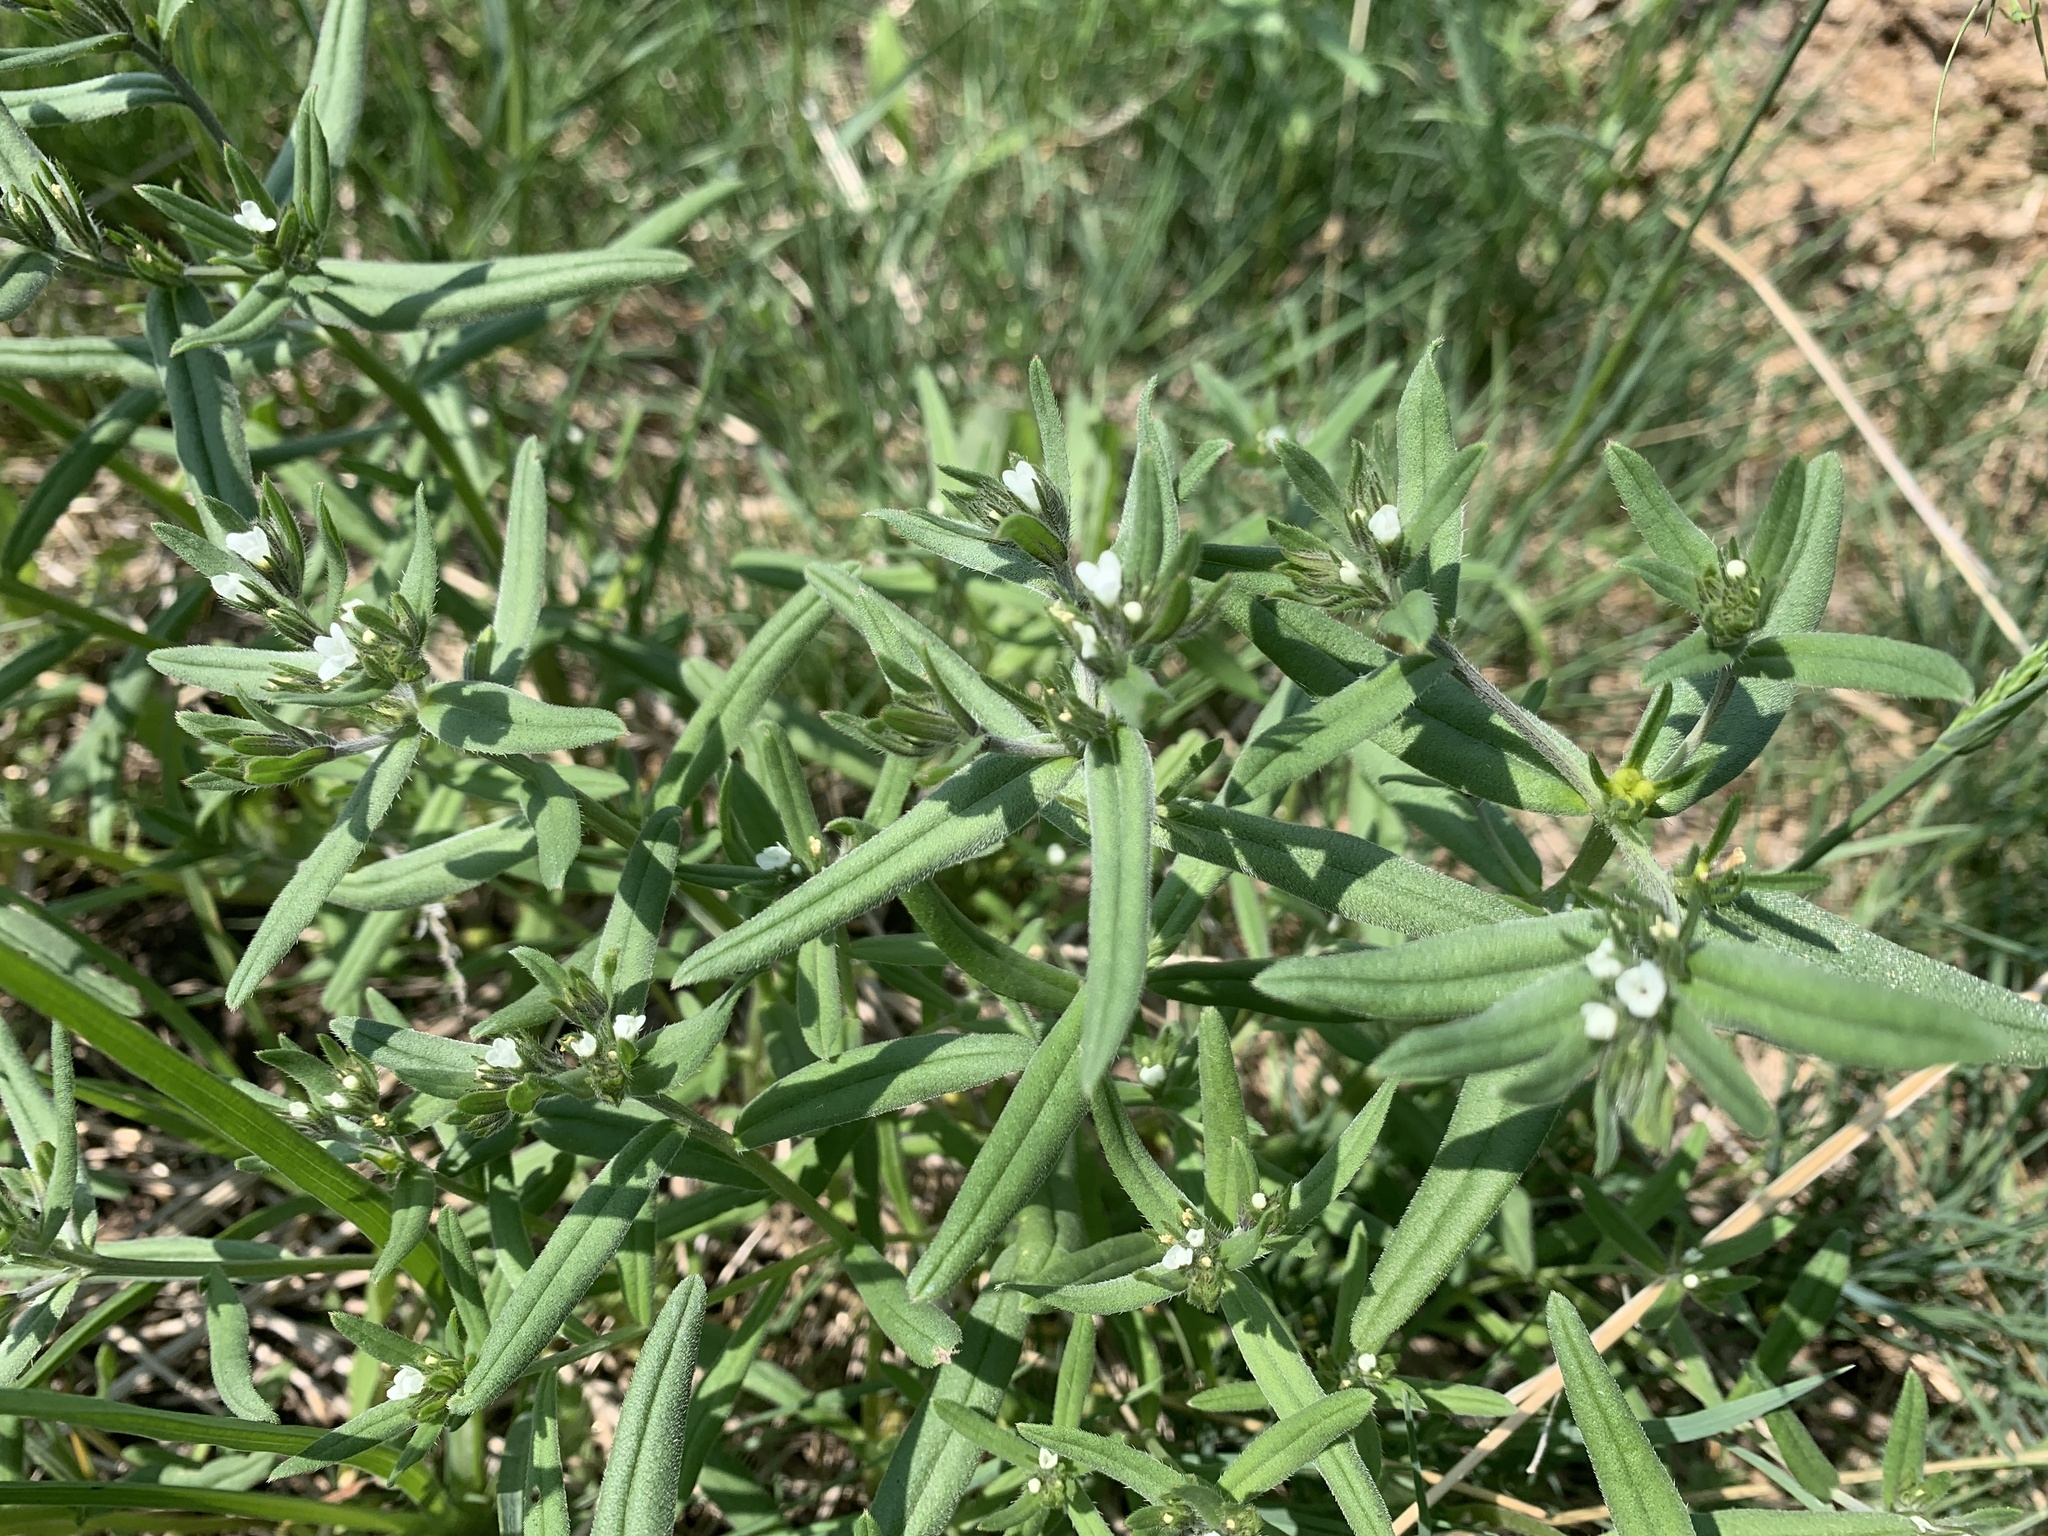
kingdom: Plantae
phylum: Tracheophyta
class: Magnoliopsida
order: Boraginales
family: Boraginaceae
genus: Buglossoides
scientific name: Buglossoides arvensis
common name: Corn gromwell
